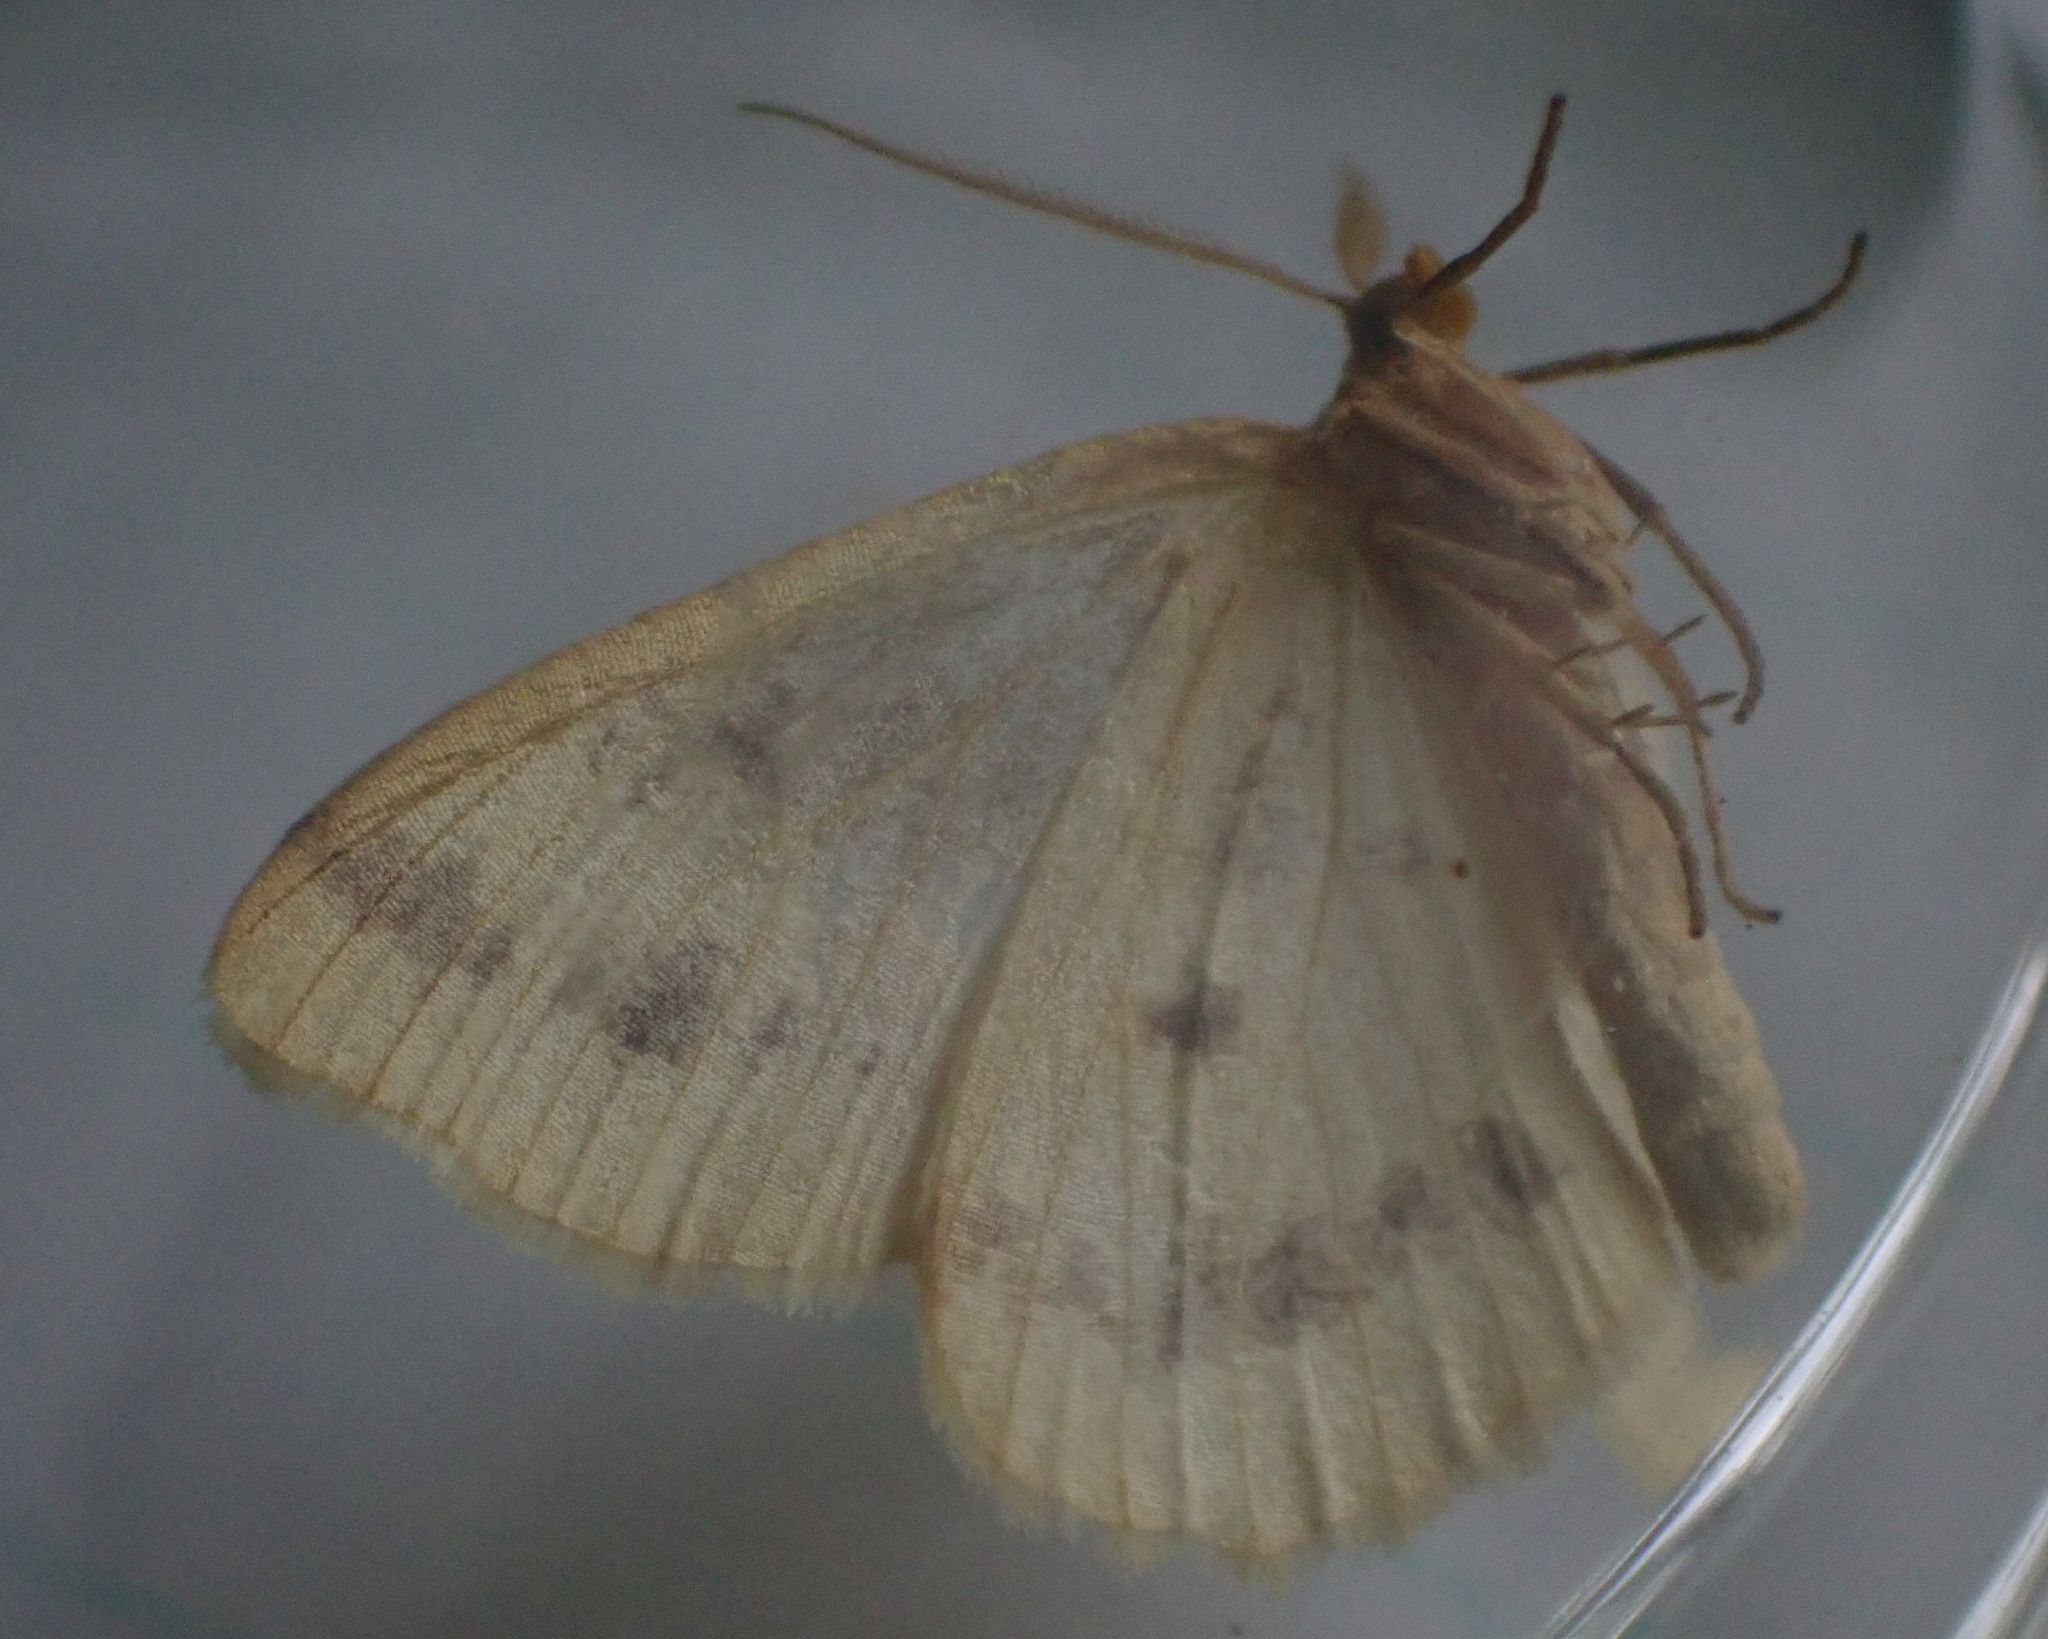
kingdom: Animalia
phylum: Arthropoda
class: Insecta
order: Lepidoptera
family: Geometridae
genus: Macaria
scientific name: Macaria ribearia
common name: Currant spanworm moth
